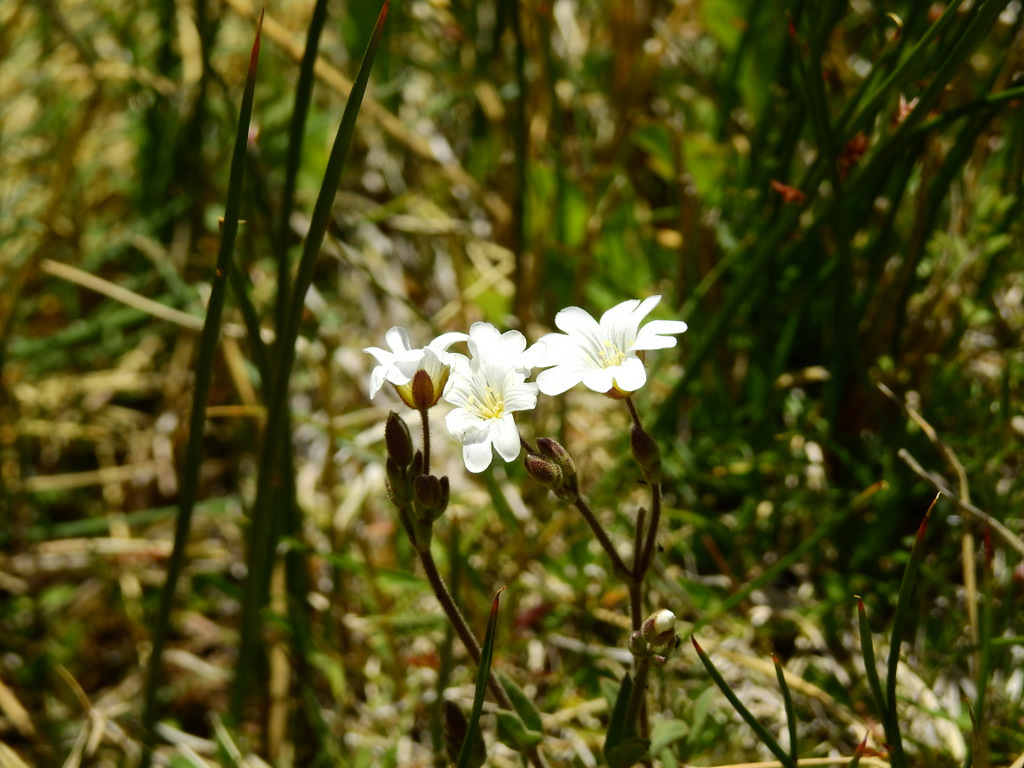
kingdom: Plantae
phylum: Tracheophyta
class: Magnoliopsida
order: Caryophyllales
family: Caryophyllaceae
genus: Cerastium
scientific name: Cerastium arvense
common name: Field mouse-ear
